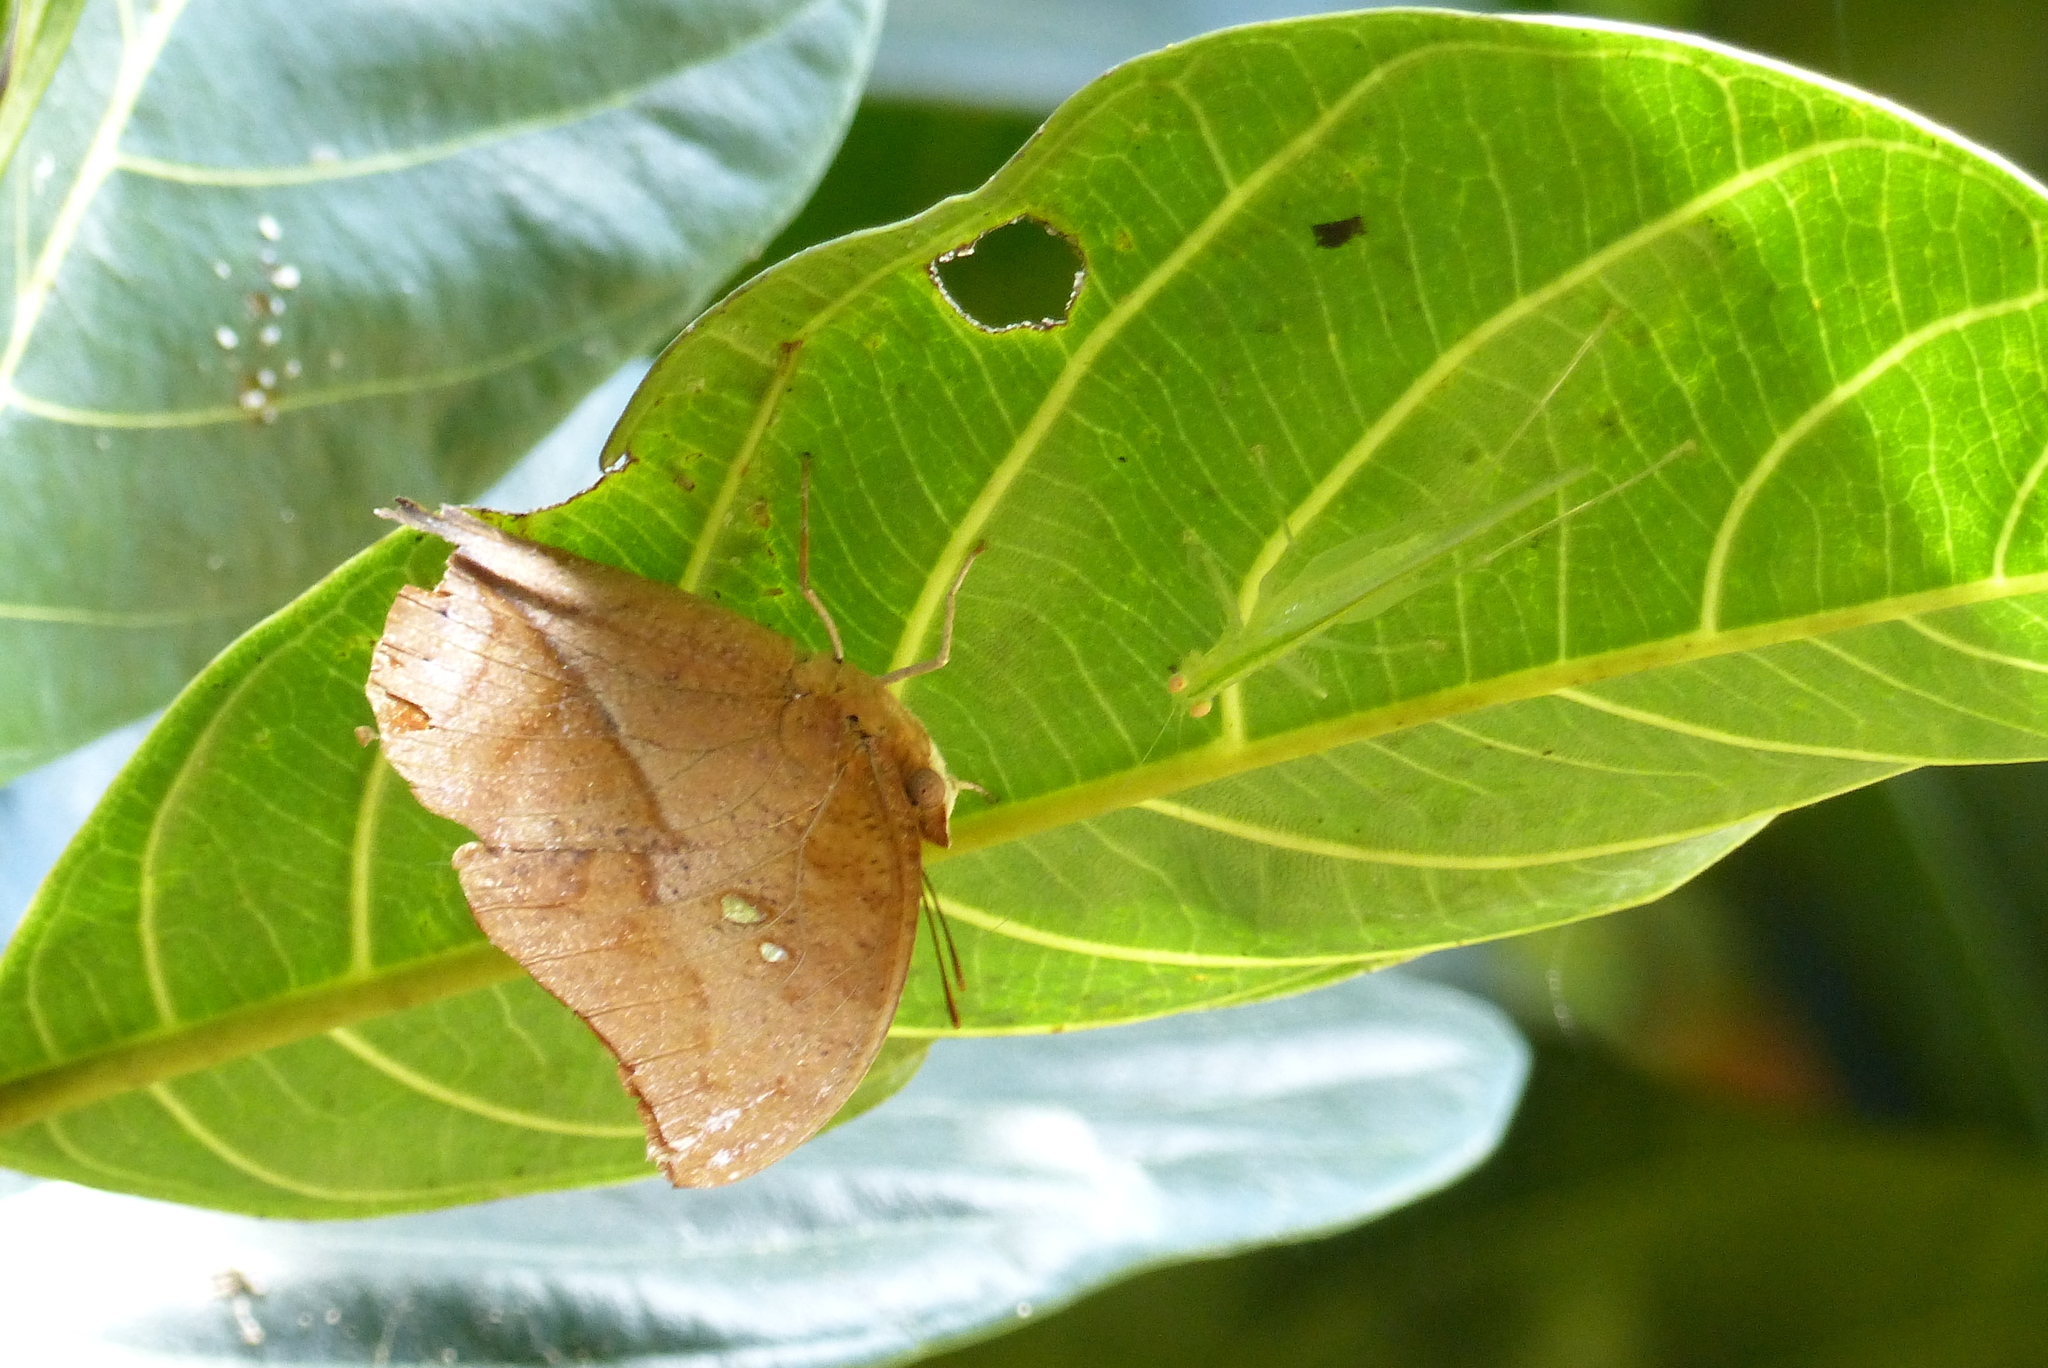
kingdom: Animalia
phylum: Arthropoda
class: Insecta
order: Lepidoptera
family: Nymphalidae
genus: Zaretis
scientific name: Zaretis itys
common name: Skeletonized leafwing
